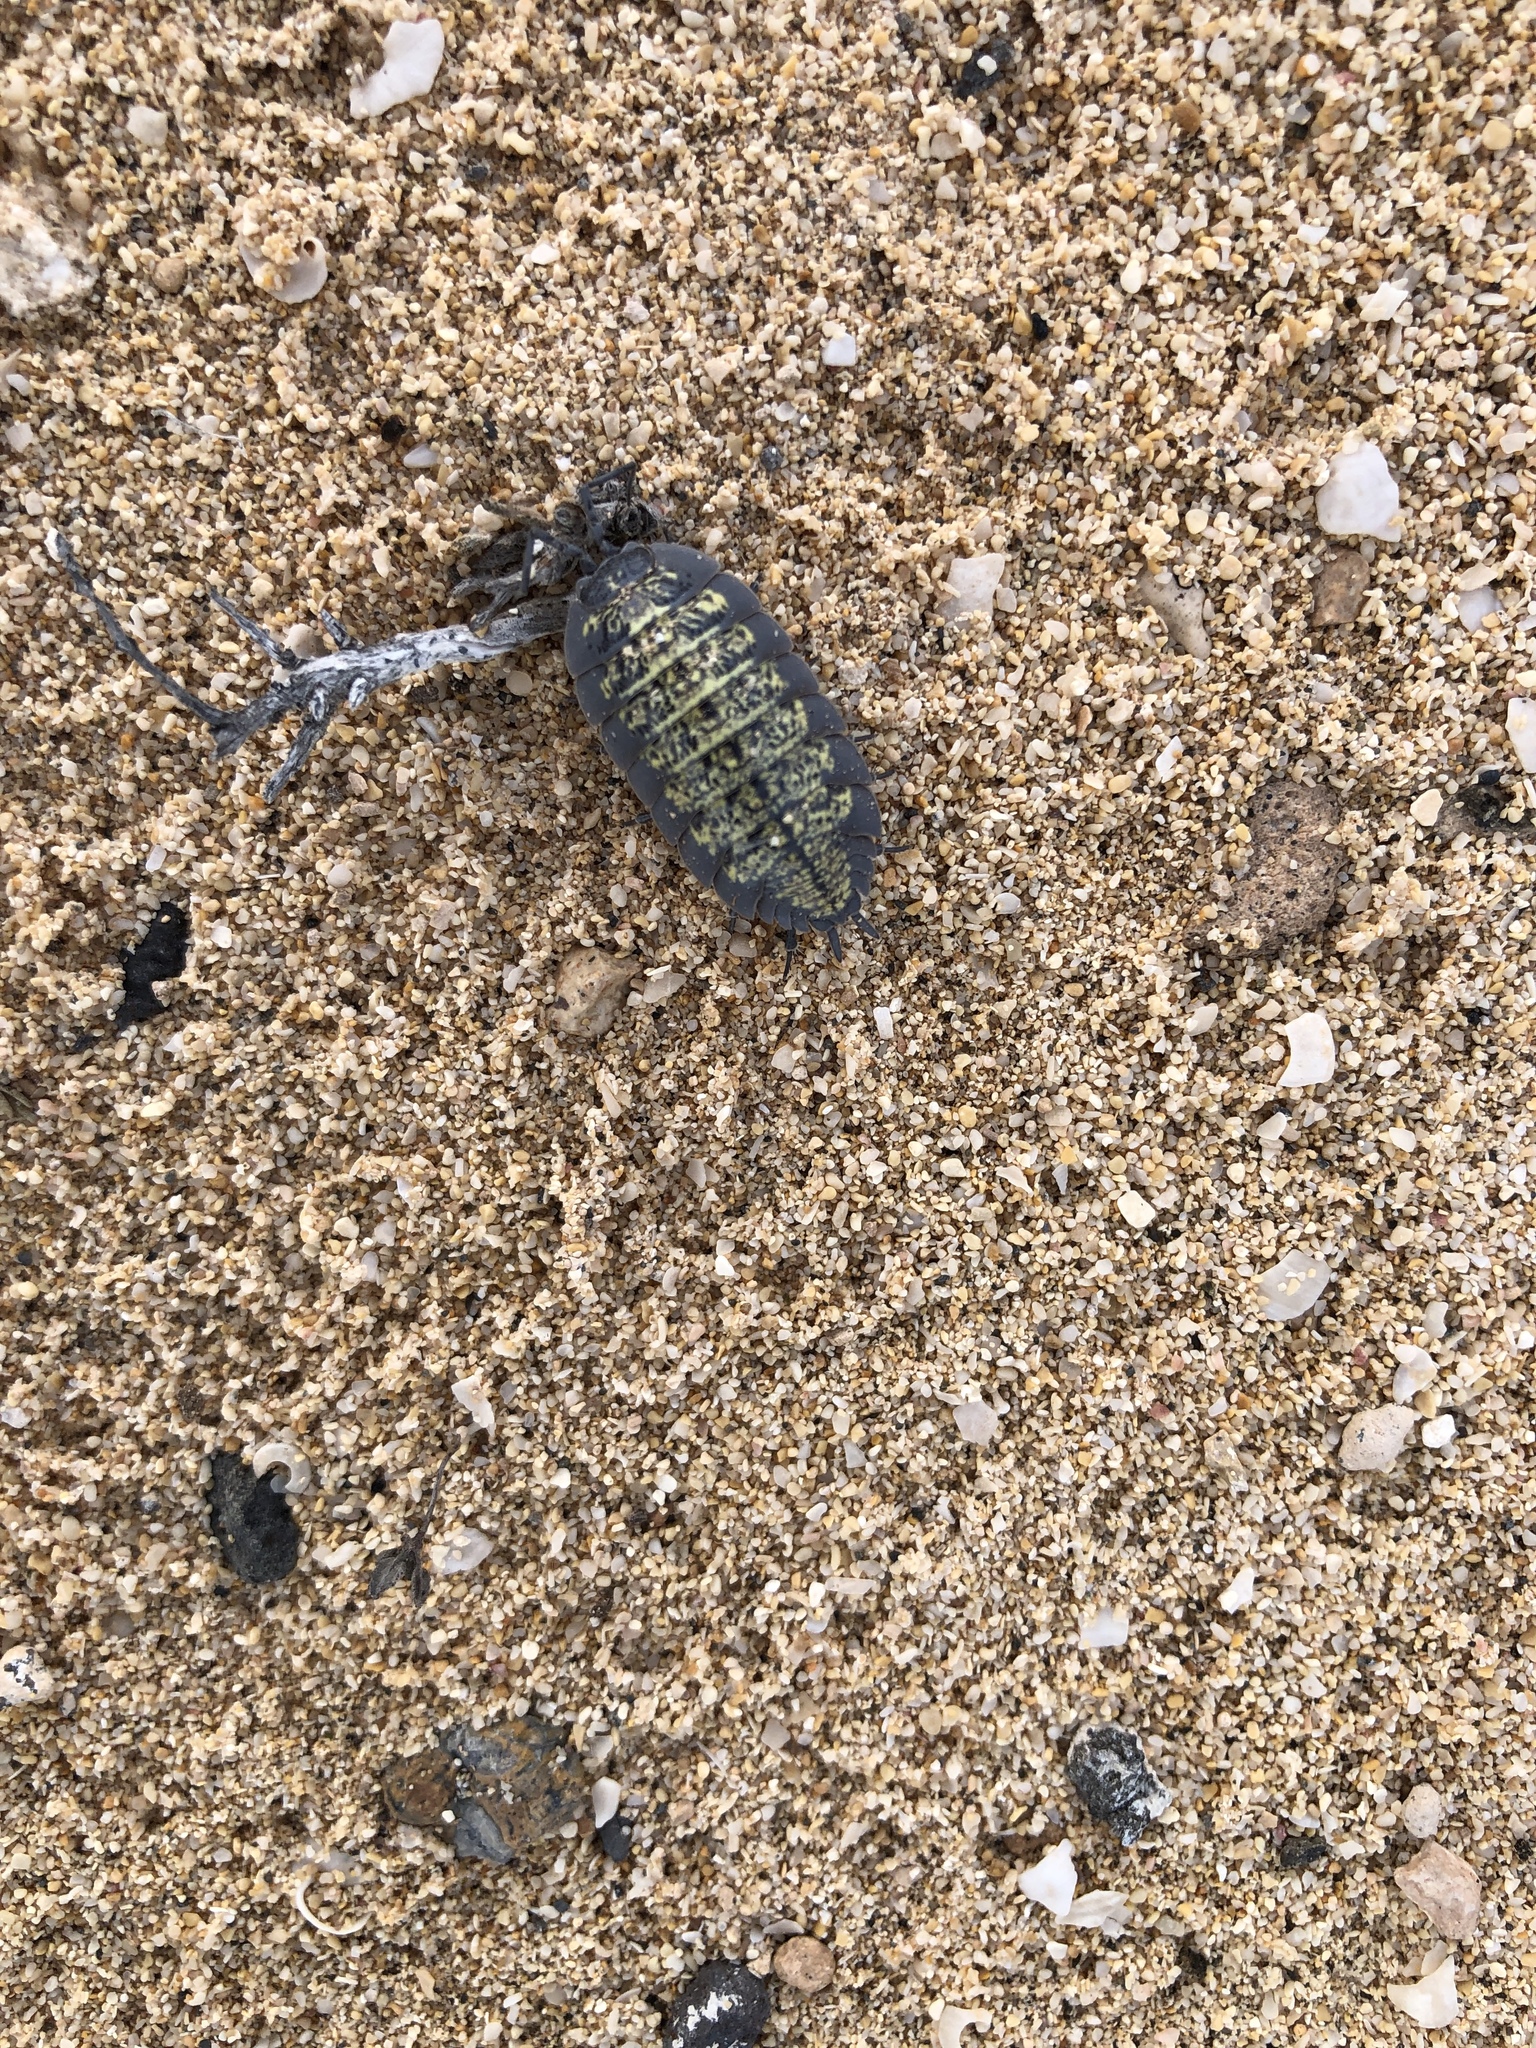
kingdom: Animalia
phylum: Arthropoda
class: Malacostraca
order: Isopoda
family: Porcellionidae
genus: Porcellio
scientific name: Porcellio spinipes
